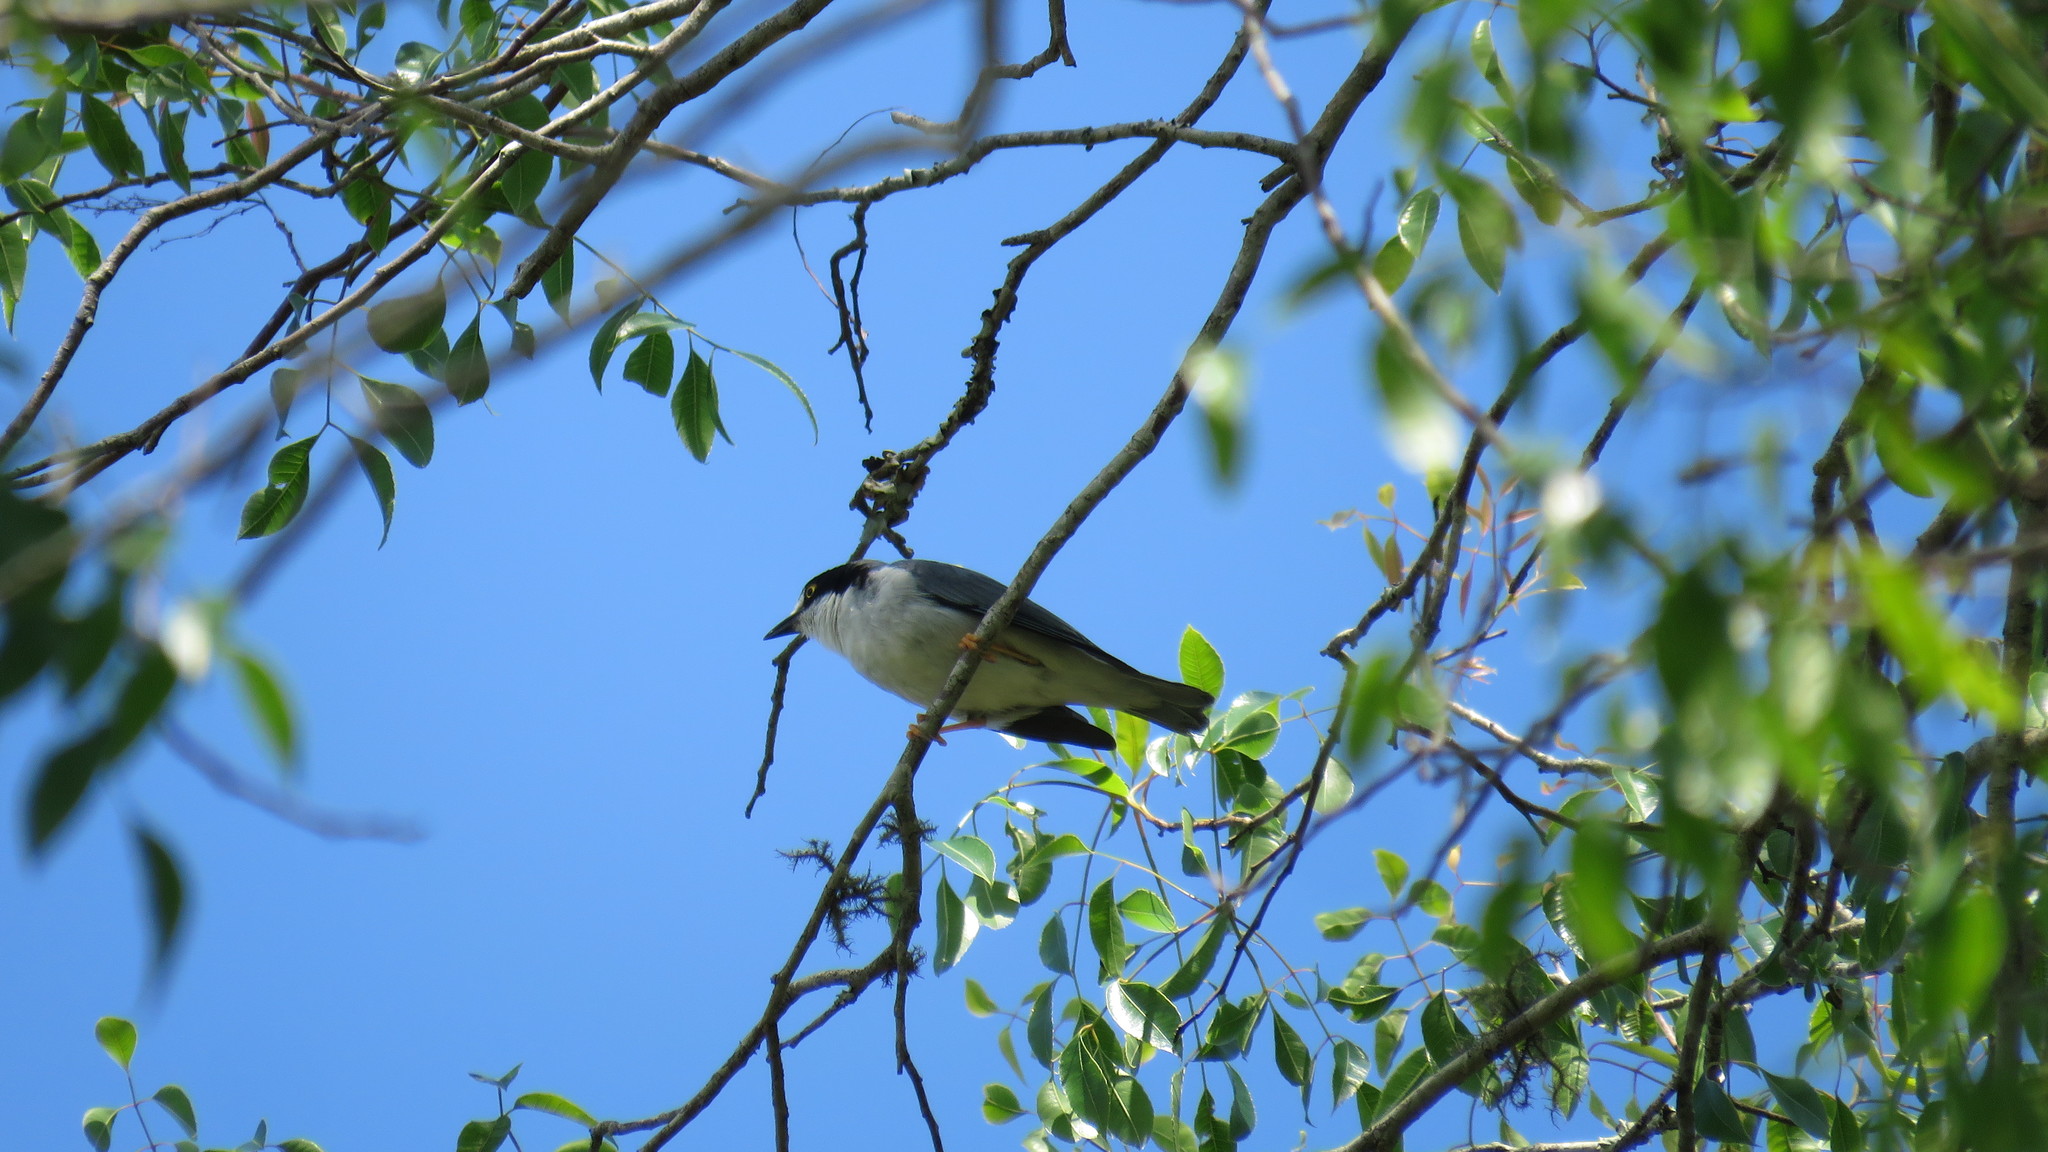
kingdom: Animalia
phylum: Chordata
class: Aves
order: Passeriformes
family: Thraupidae
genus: Nemosia
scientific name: Nemosia pileata
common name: Hooded tanager
